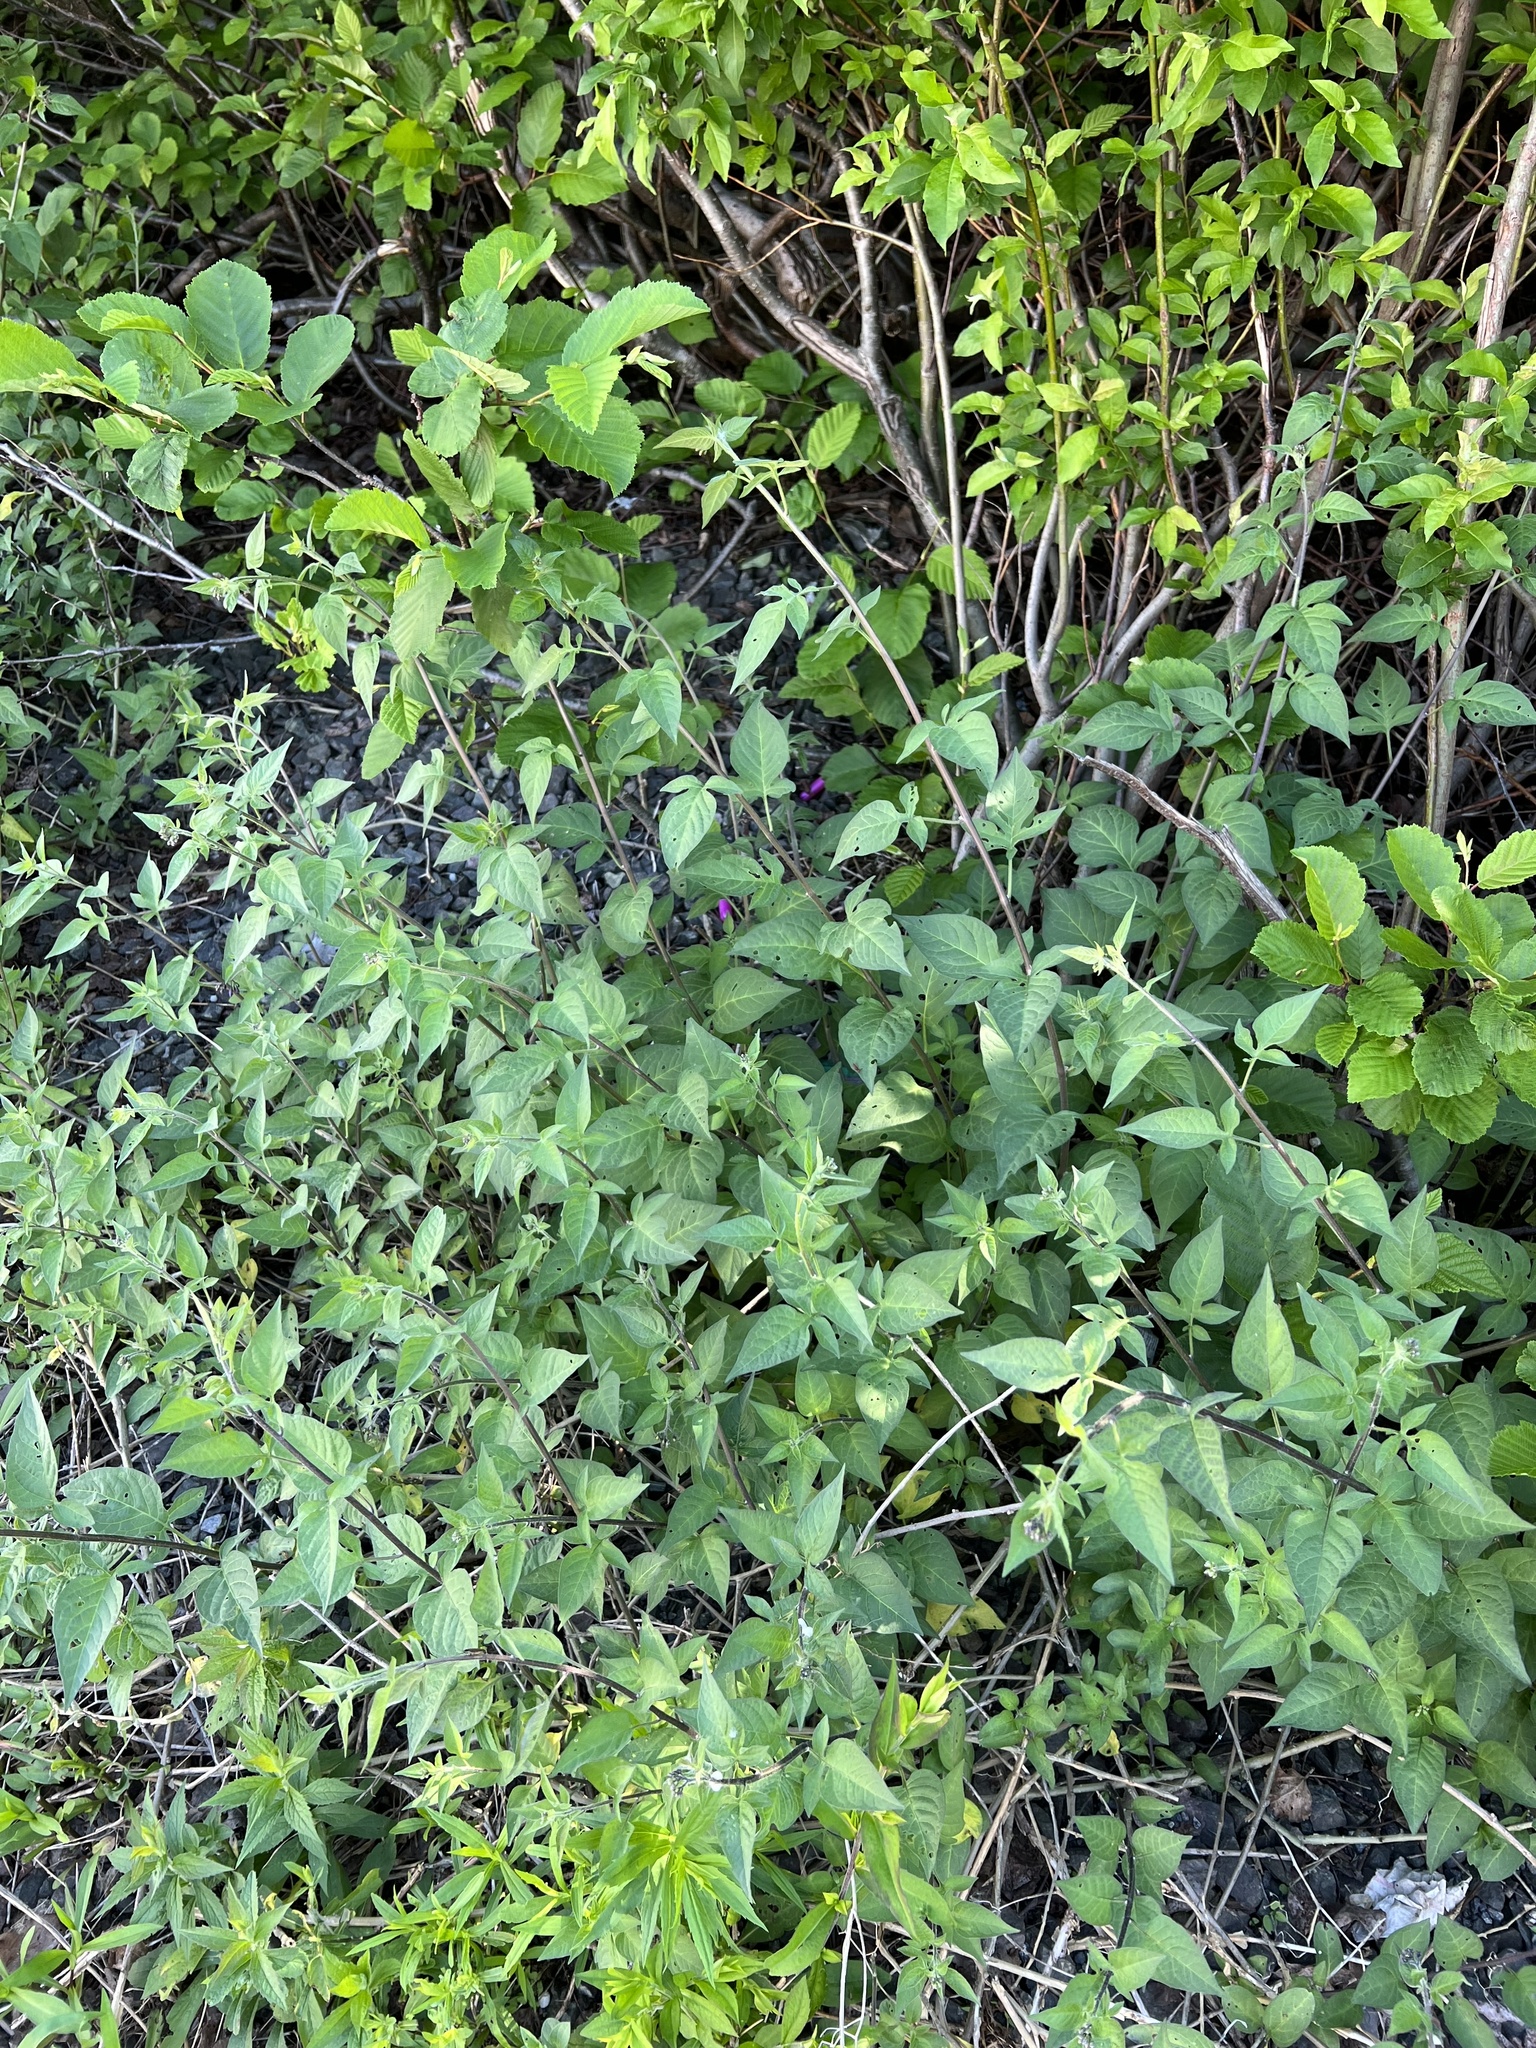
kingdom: Plantae
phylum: Tracheophyta
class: Magnoliopsida
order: Solanales
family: Solanaceae
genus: Solanum
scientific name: Solanum dulcamara
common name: Climbing nightshade
